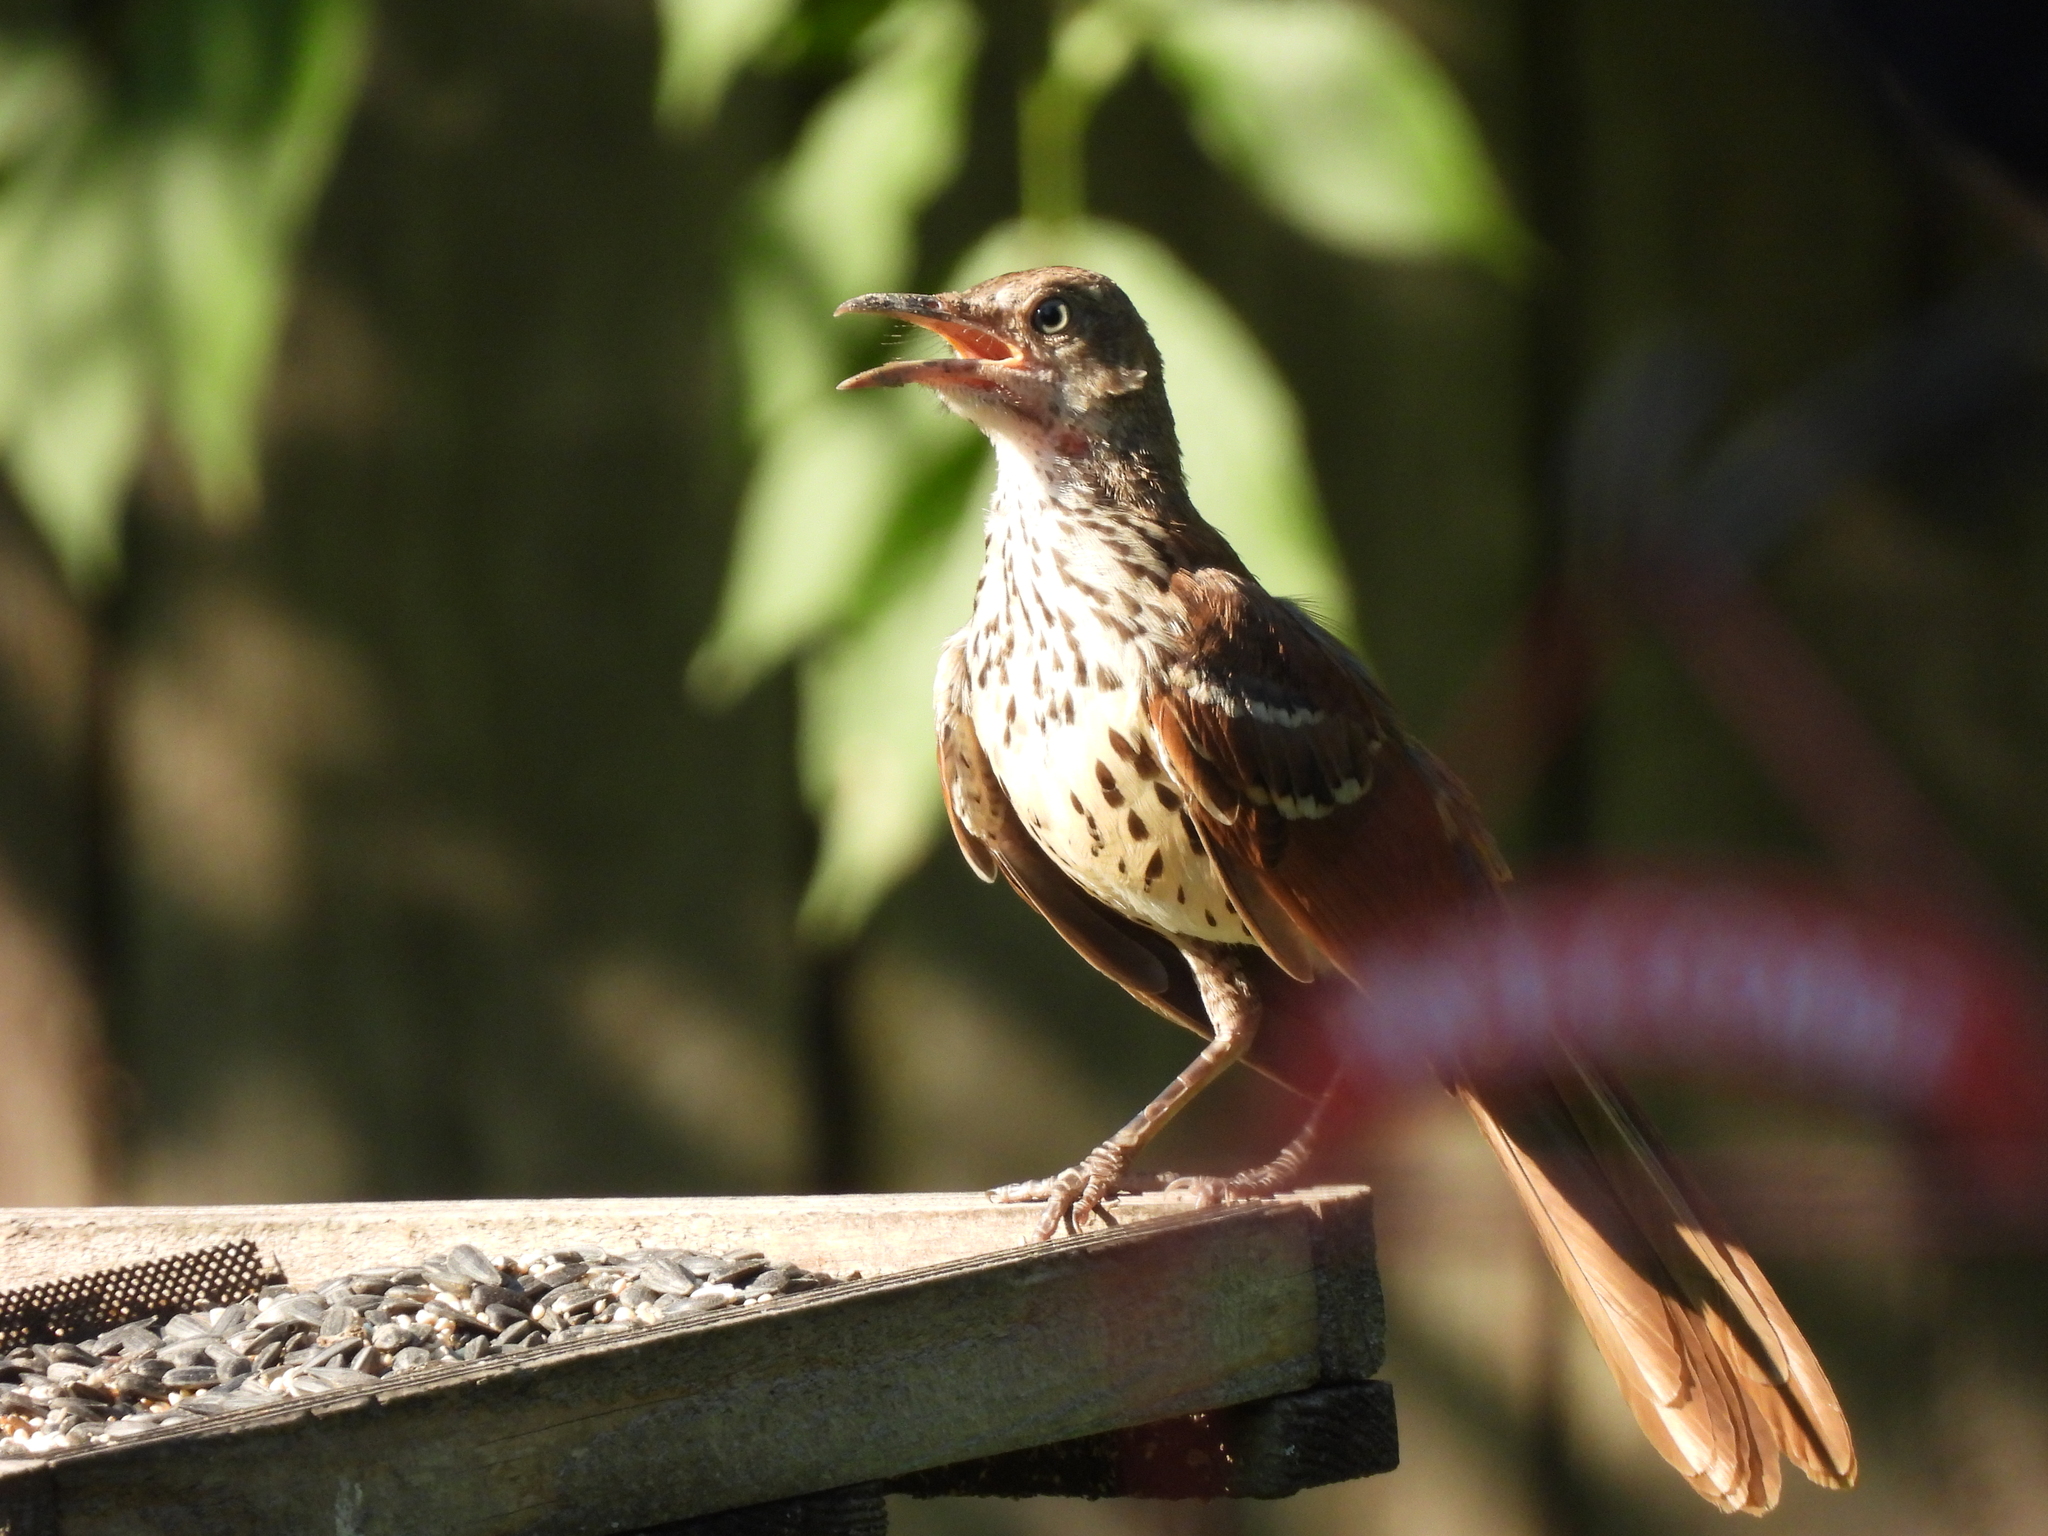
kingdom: Animalia
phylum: Chordata
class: Aves
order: Passeriformes
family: Mimidae
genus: Toxostoma
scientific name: Toxostoma rufum
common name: Brown thrasher
